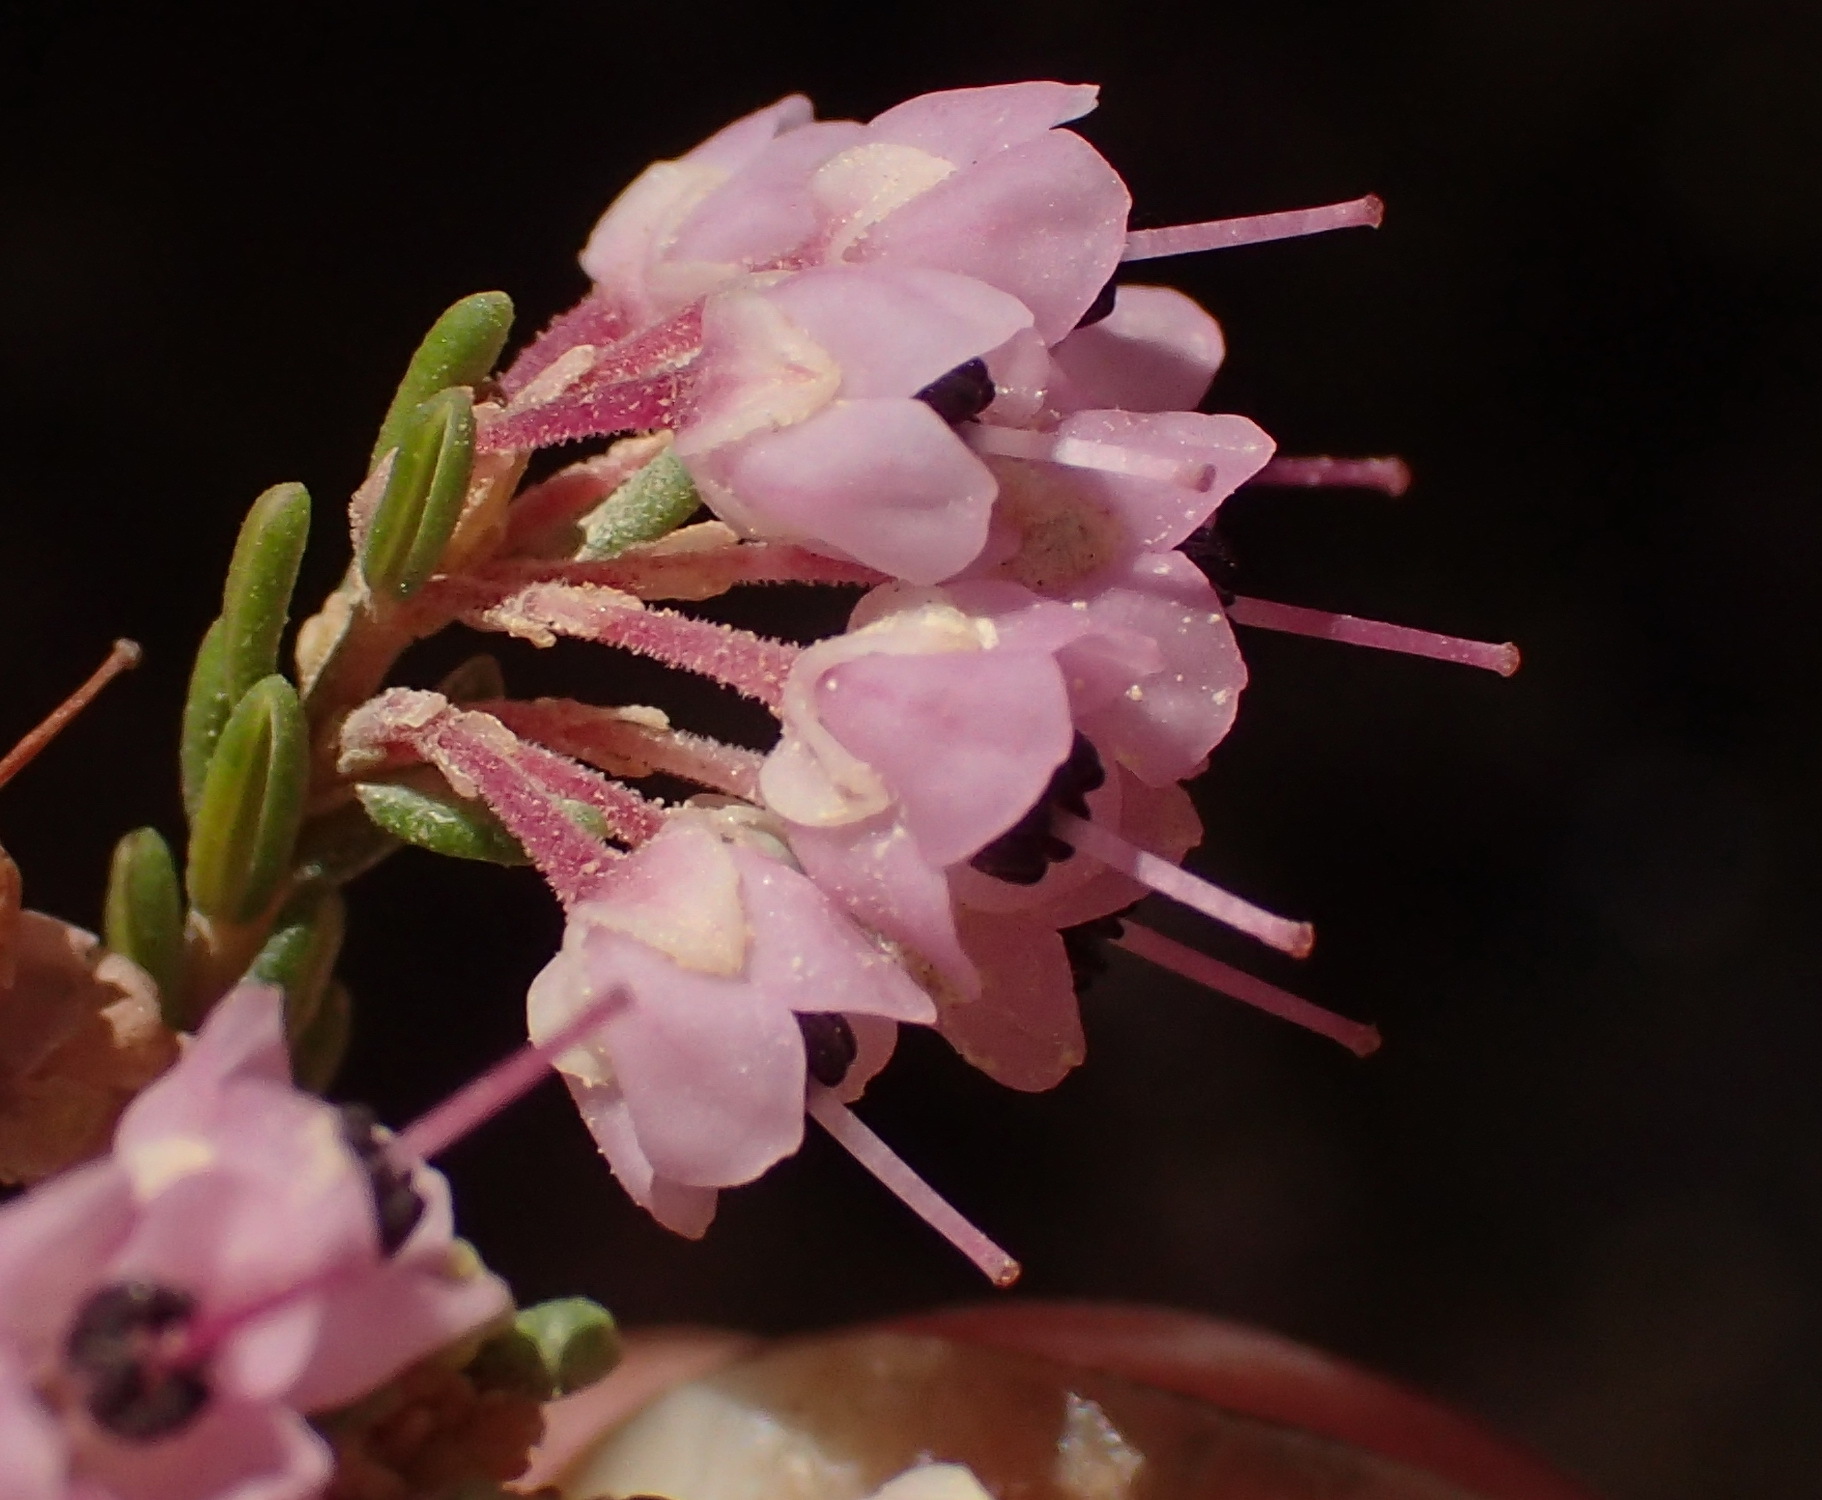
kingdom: Plantae
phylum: Tracheophyta
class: Magnoliopsida
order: Ericales
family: Ericaceae
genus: Erica
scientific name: Erica canaliculata
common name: Hairy grey heather
